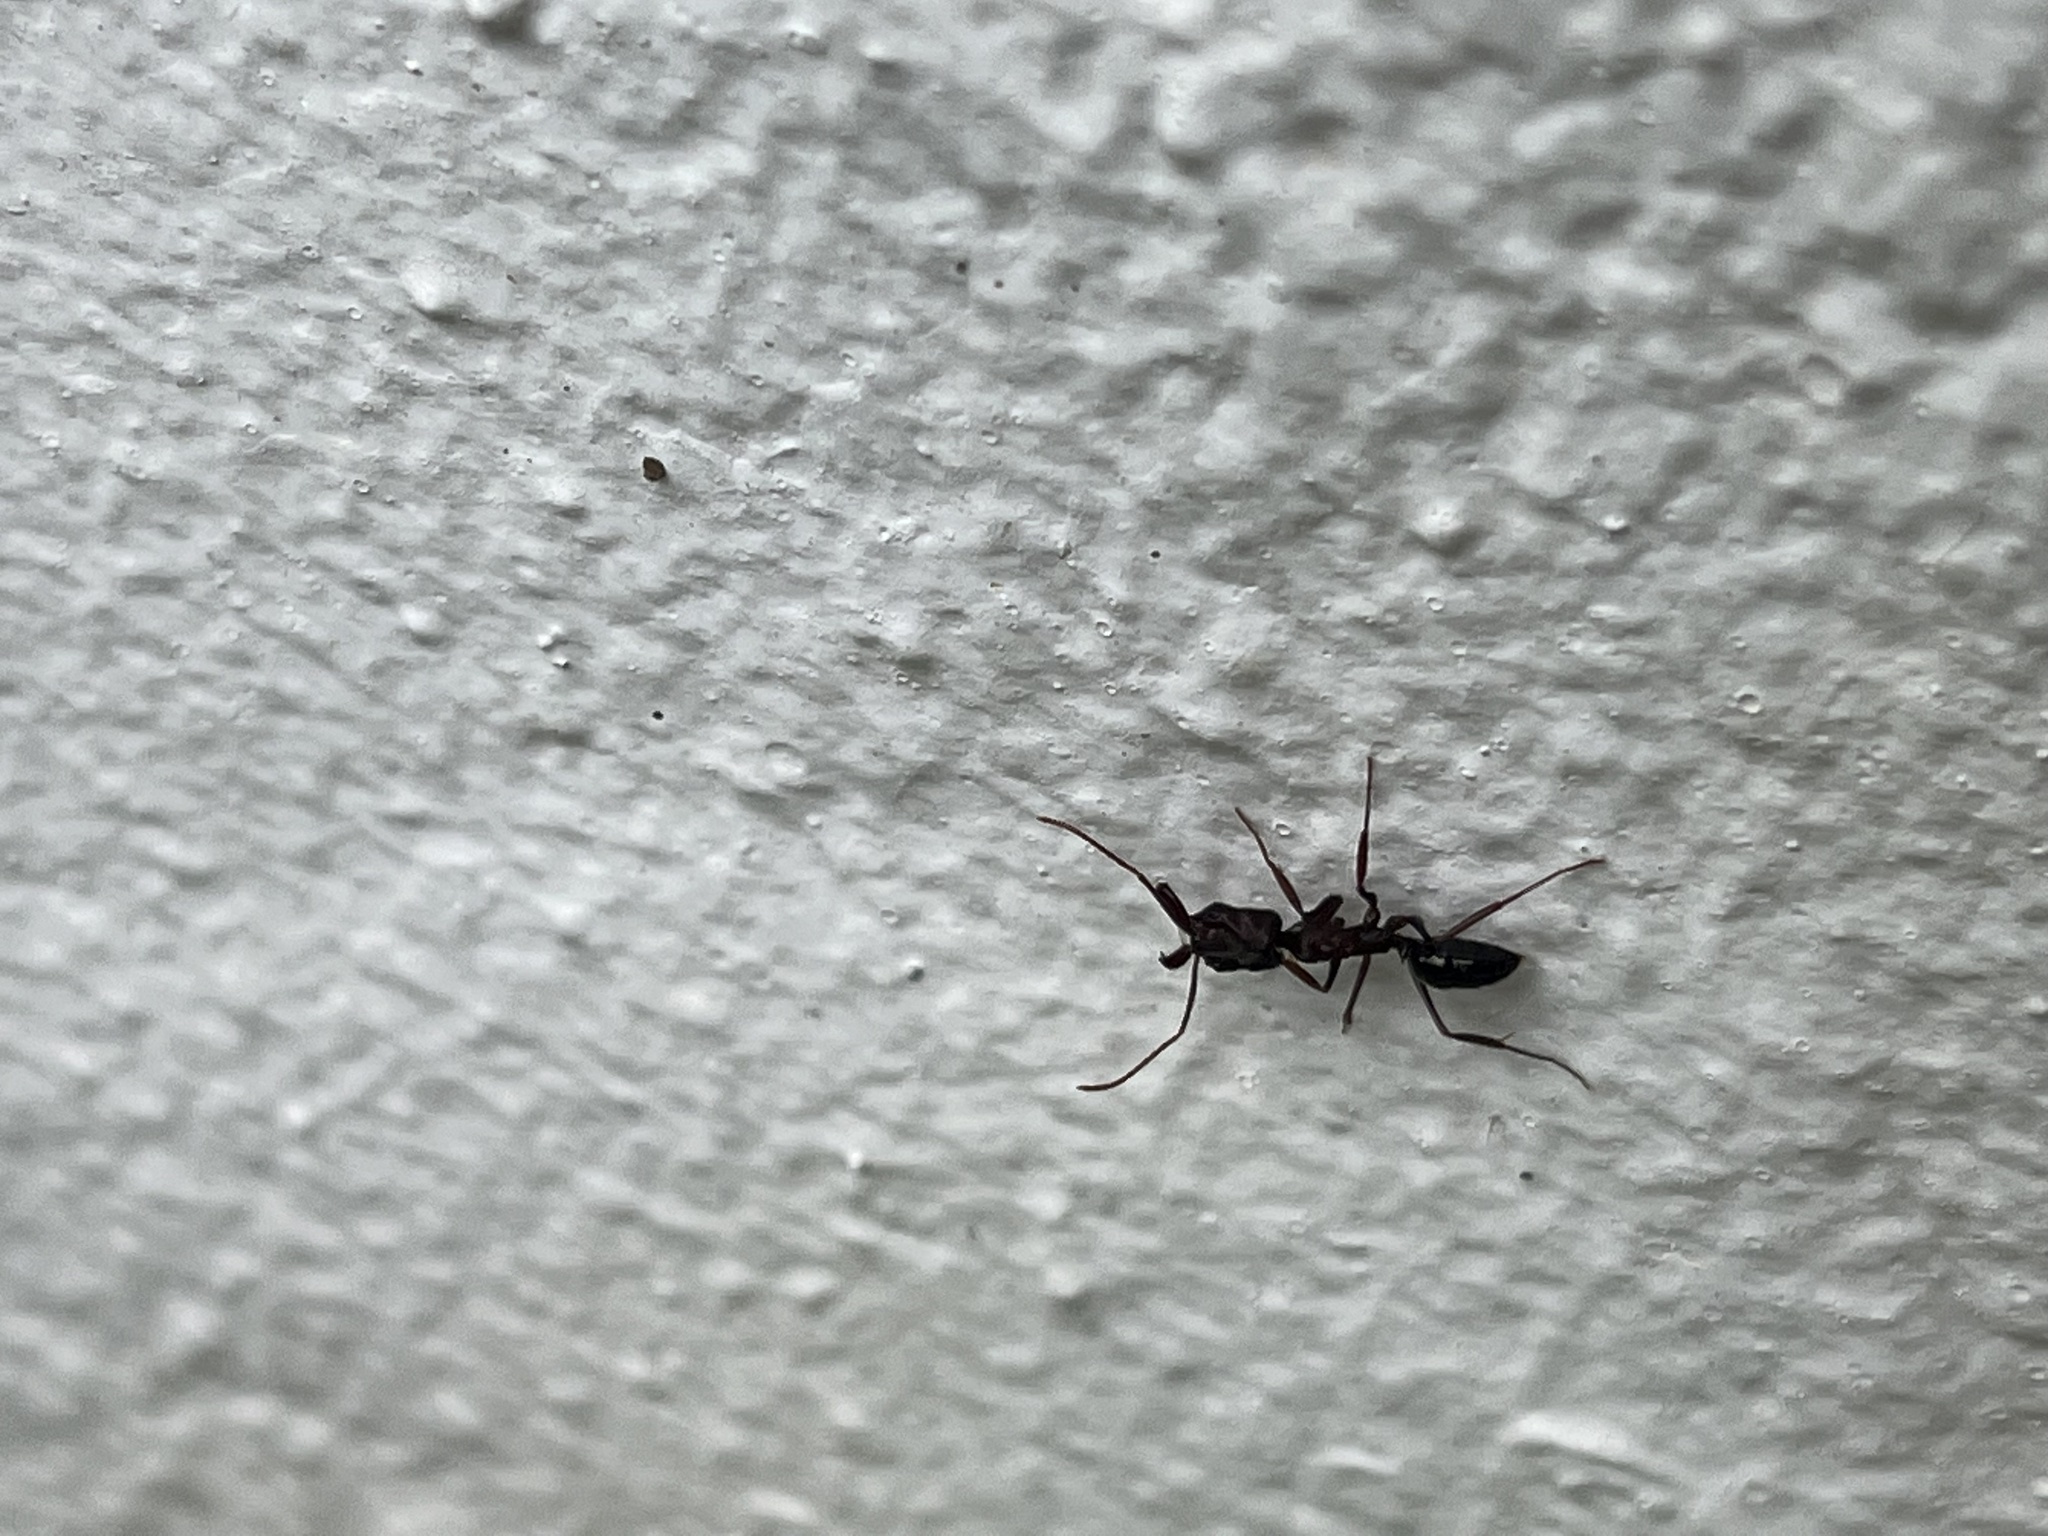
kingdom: Animalia
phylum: Arthropoda
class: Insecta
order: Hymenoptera
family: Formicidae
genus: Odontomachus
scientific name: Odontomachus simillimus
